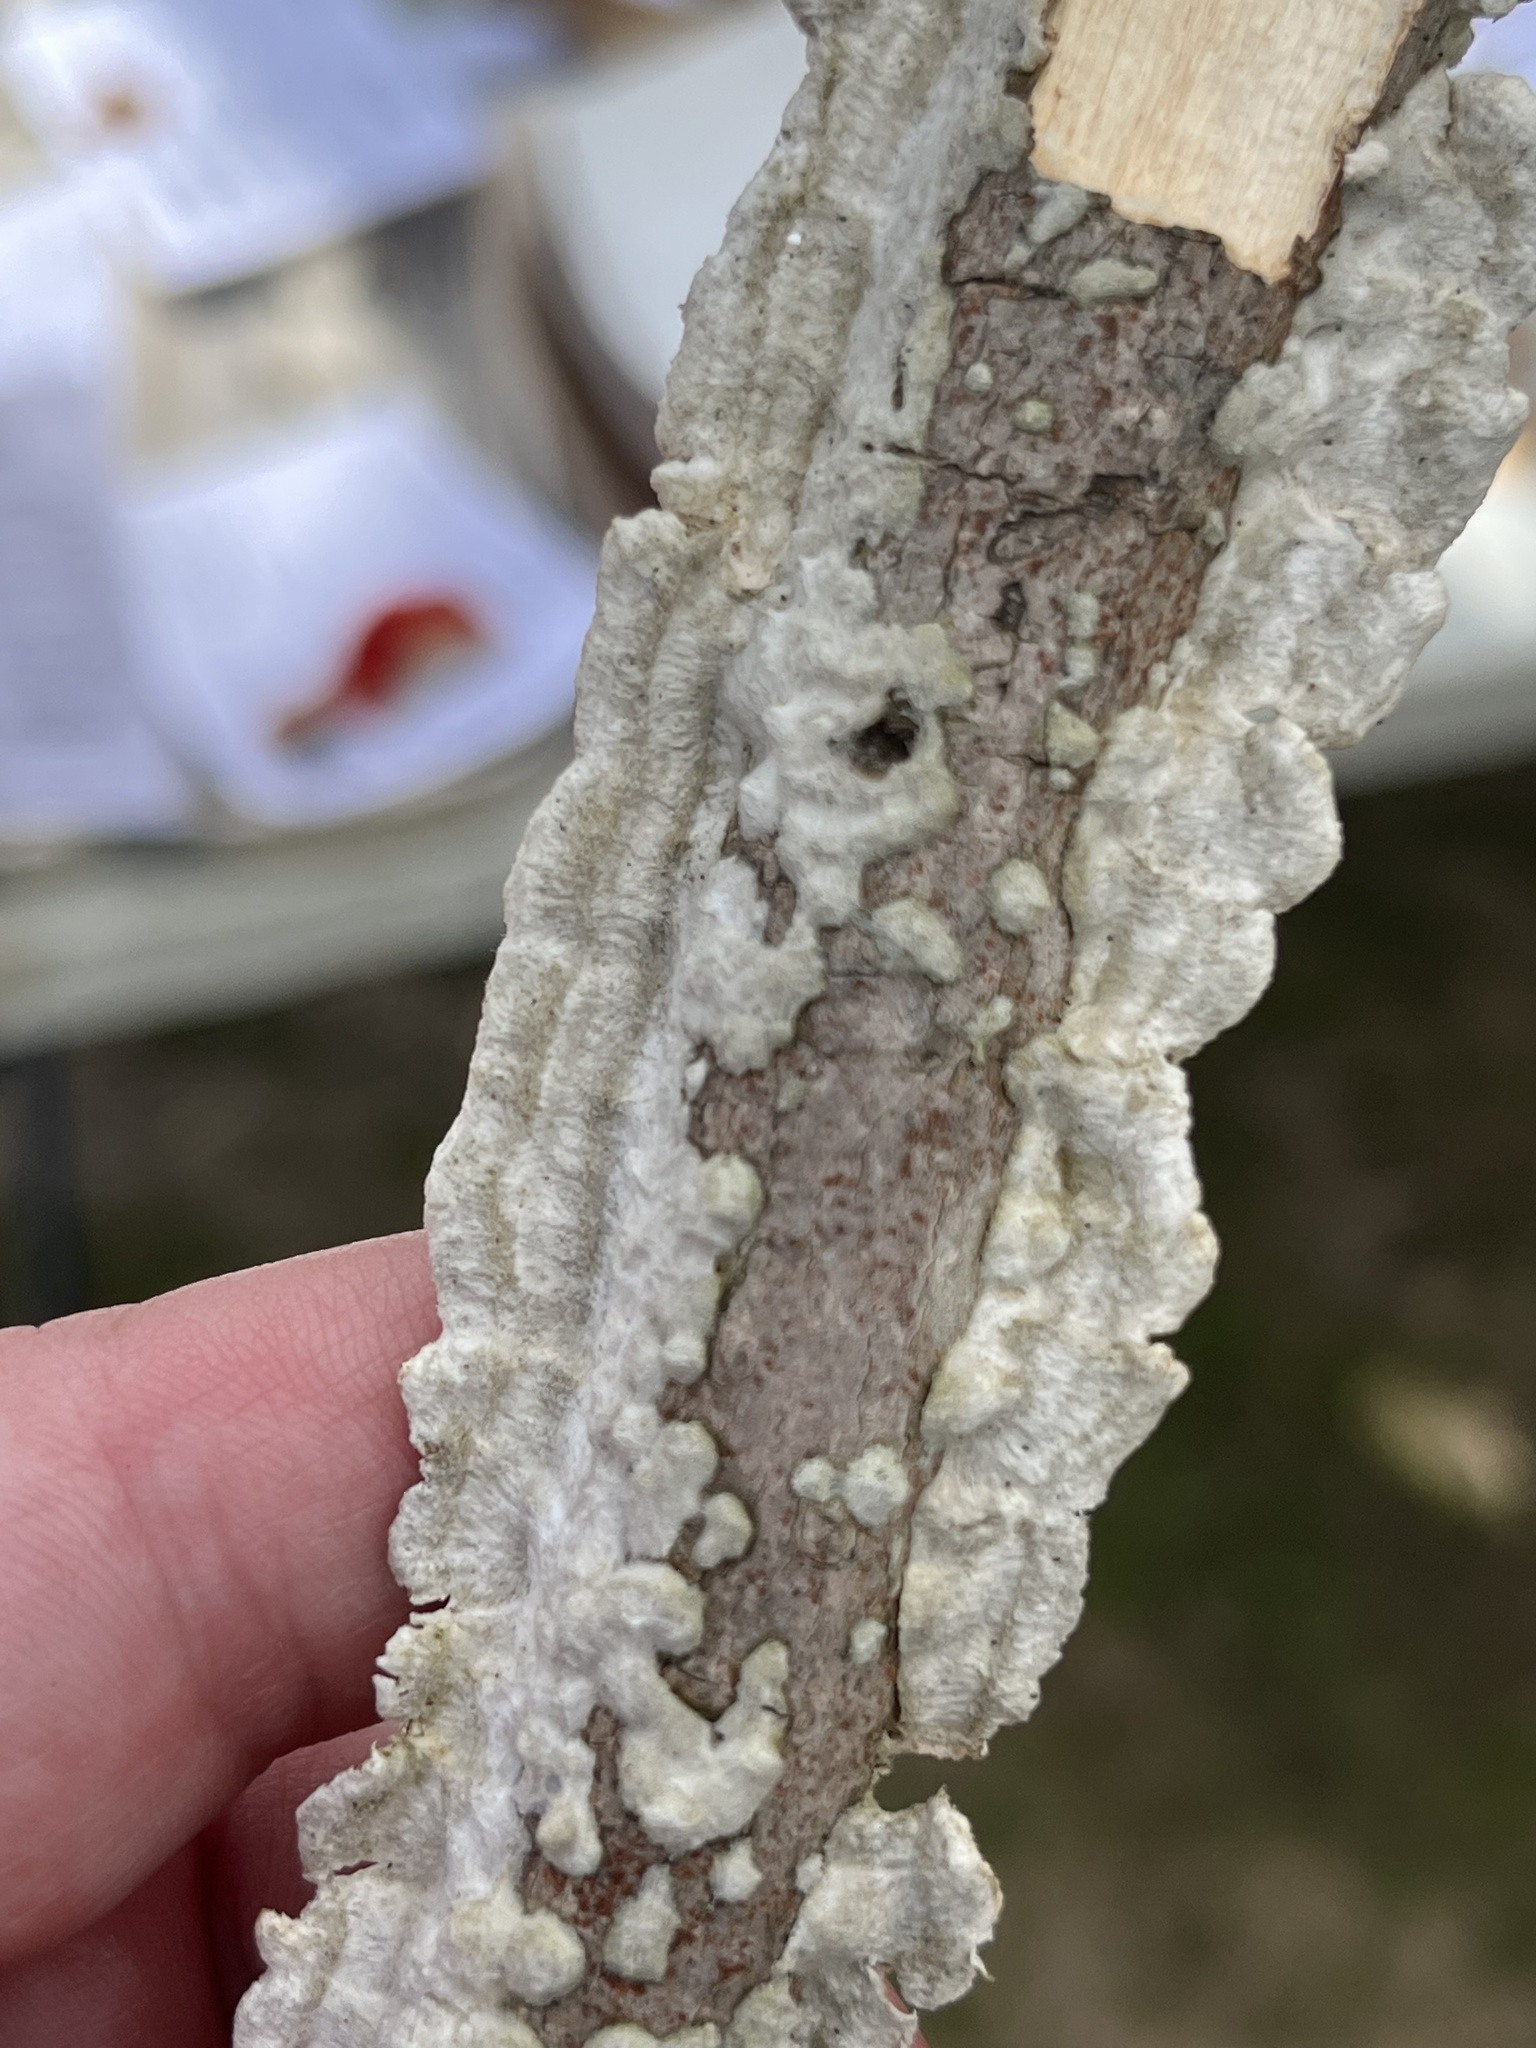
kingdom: Fungi
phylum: Basidiomycota
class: Agaricomycetes
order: Polyporales
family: Irpicaceae
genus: Irpex
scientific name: Irpex lacteus
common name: Milk-white toothed polypore
